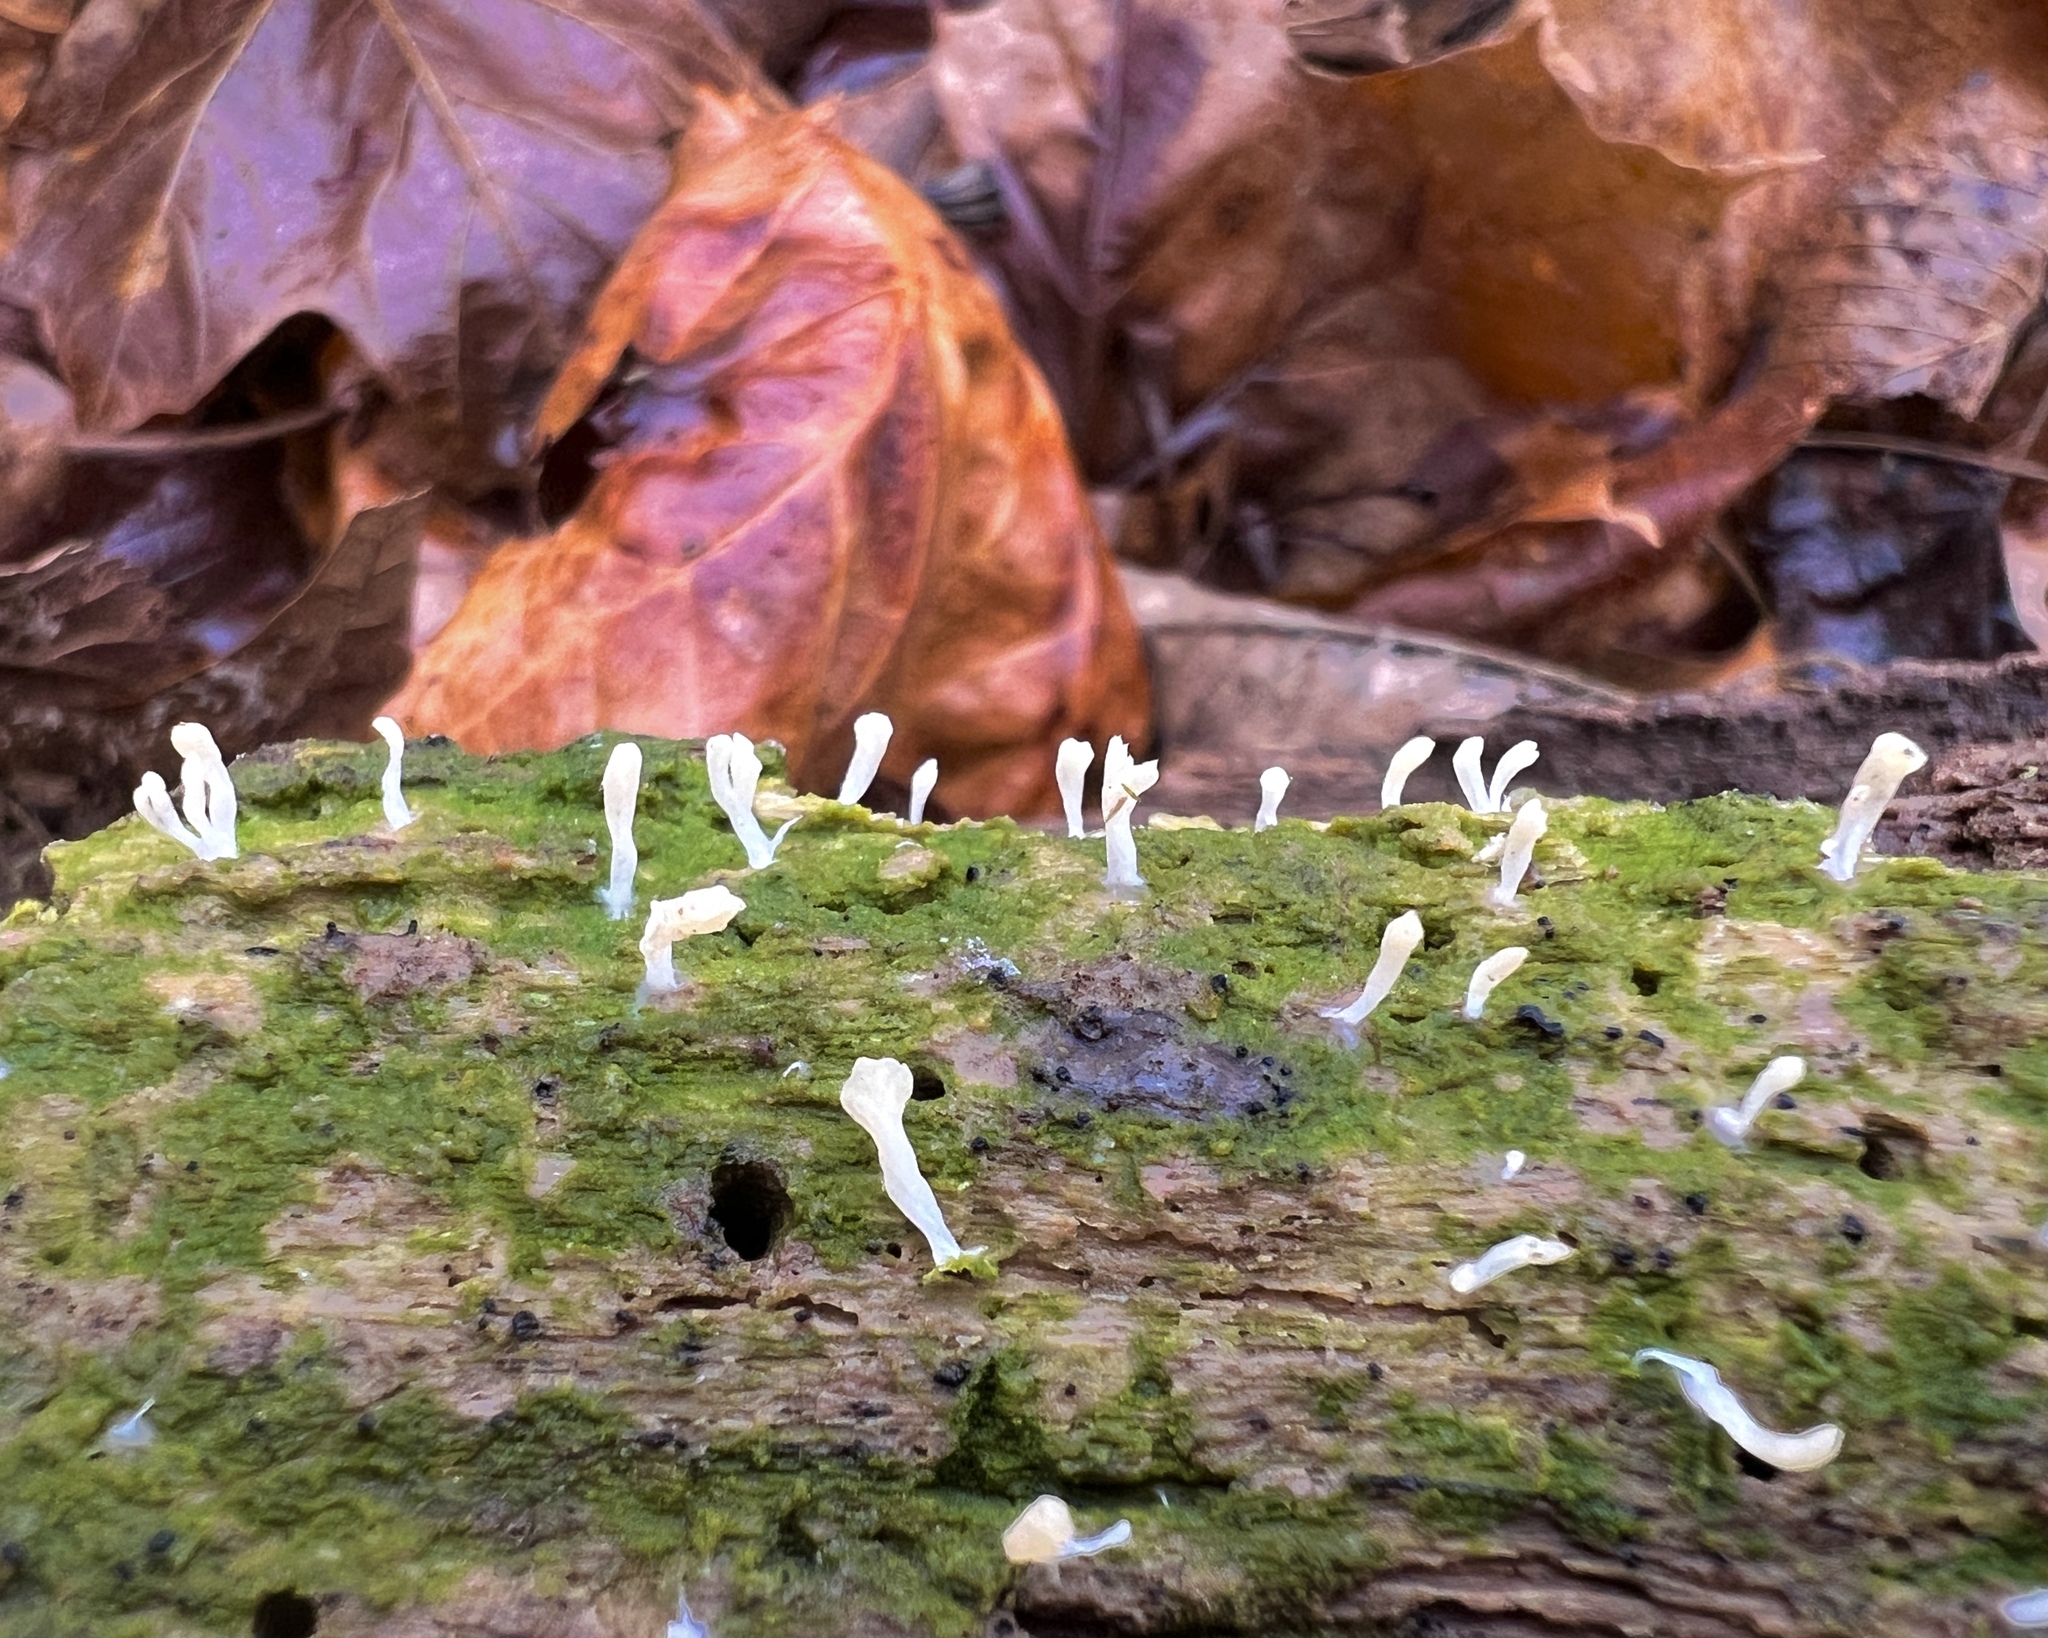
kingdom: Fungi
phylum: Basidiomycota
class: Agaricomycetes
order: Cantharellales
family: Hydnaceae
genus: Multiclavula
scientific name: Multiclavula mucida
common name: White green-algae coral
